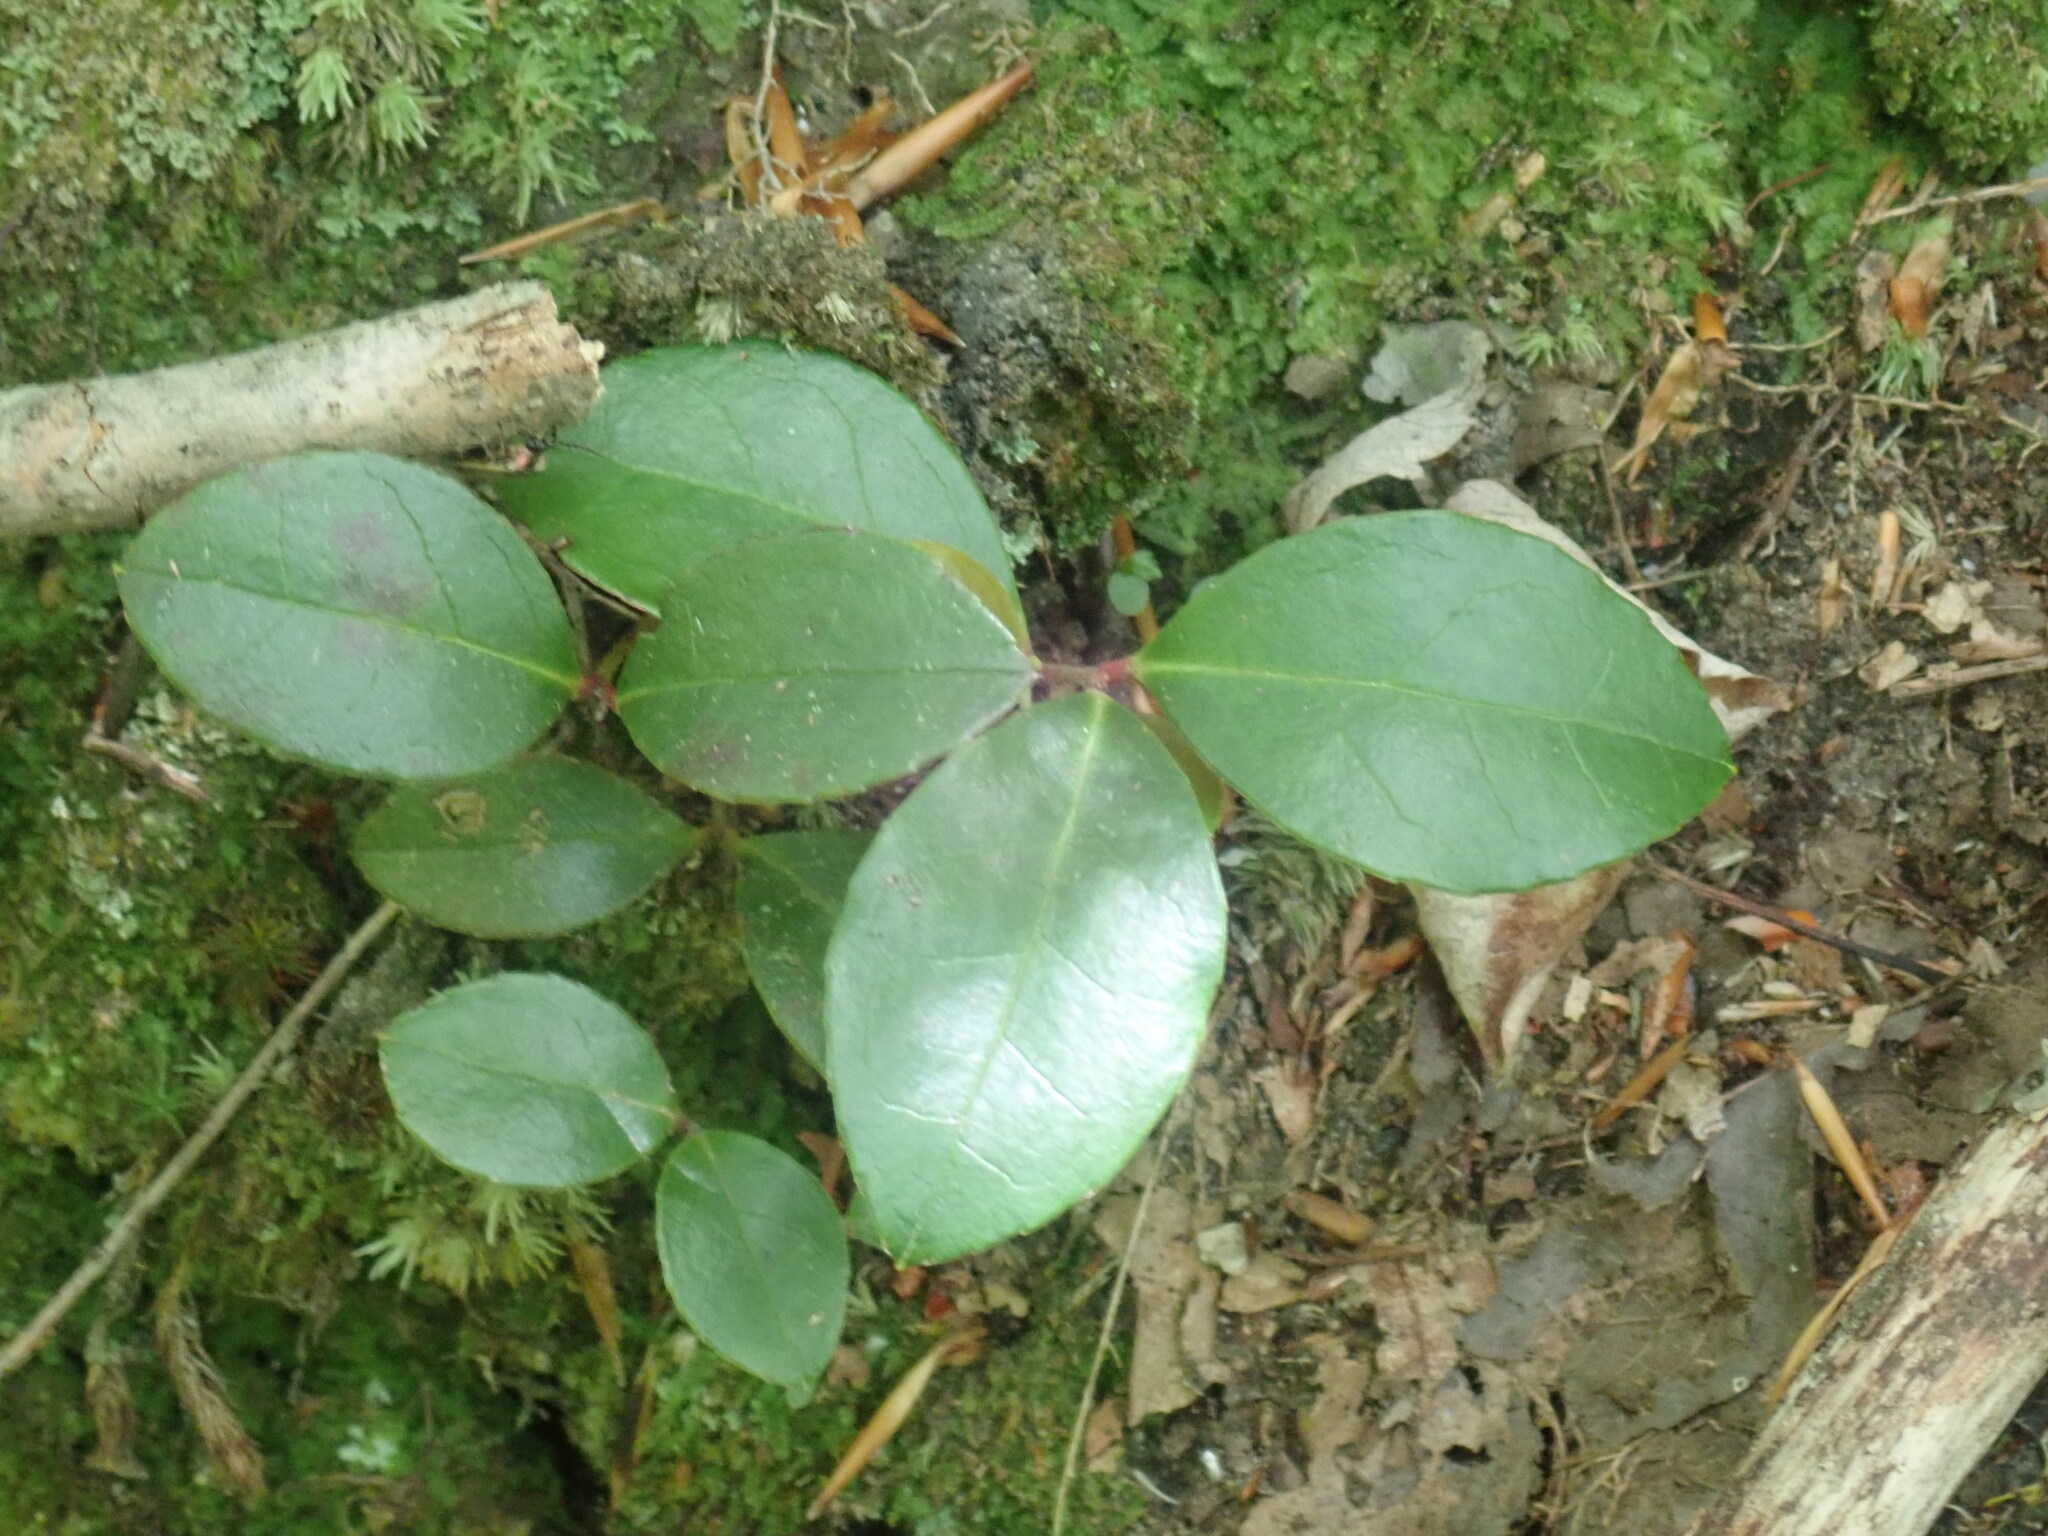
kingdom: Plantae
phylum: Tracheophyta
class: Magnoliopsida
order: Ericales
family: Ericaceae
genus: Gaultheria
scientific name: Gaultheria procumbens
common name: Checkerberry
